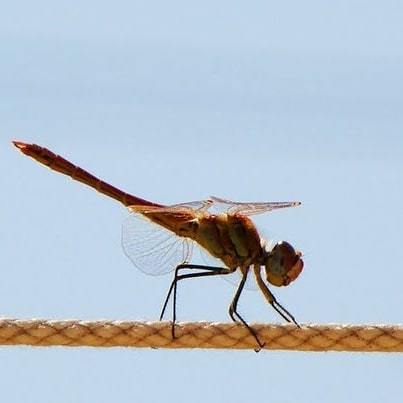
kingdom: Animalia
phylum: Arthropoda
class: Insecta
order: Odonata
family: Libellulidae
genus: Sympetrum
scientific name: Sympetrum fonscolombii
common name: Red-veined darter
